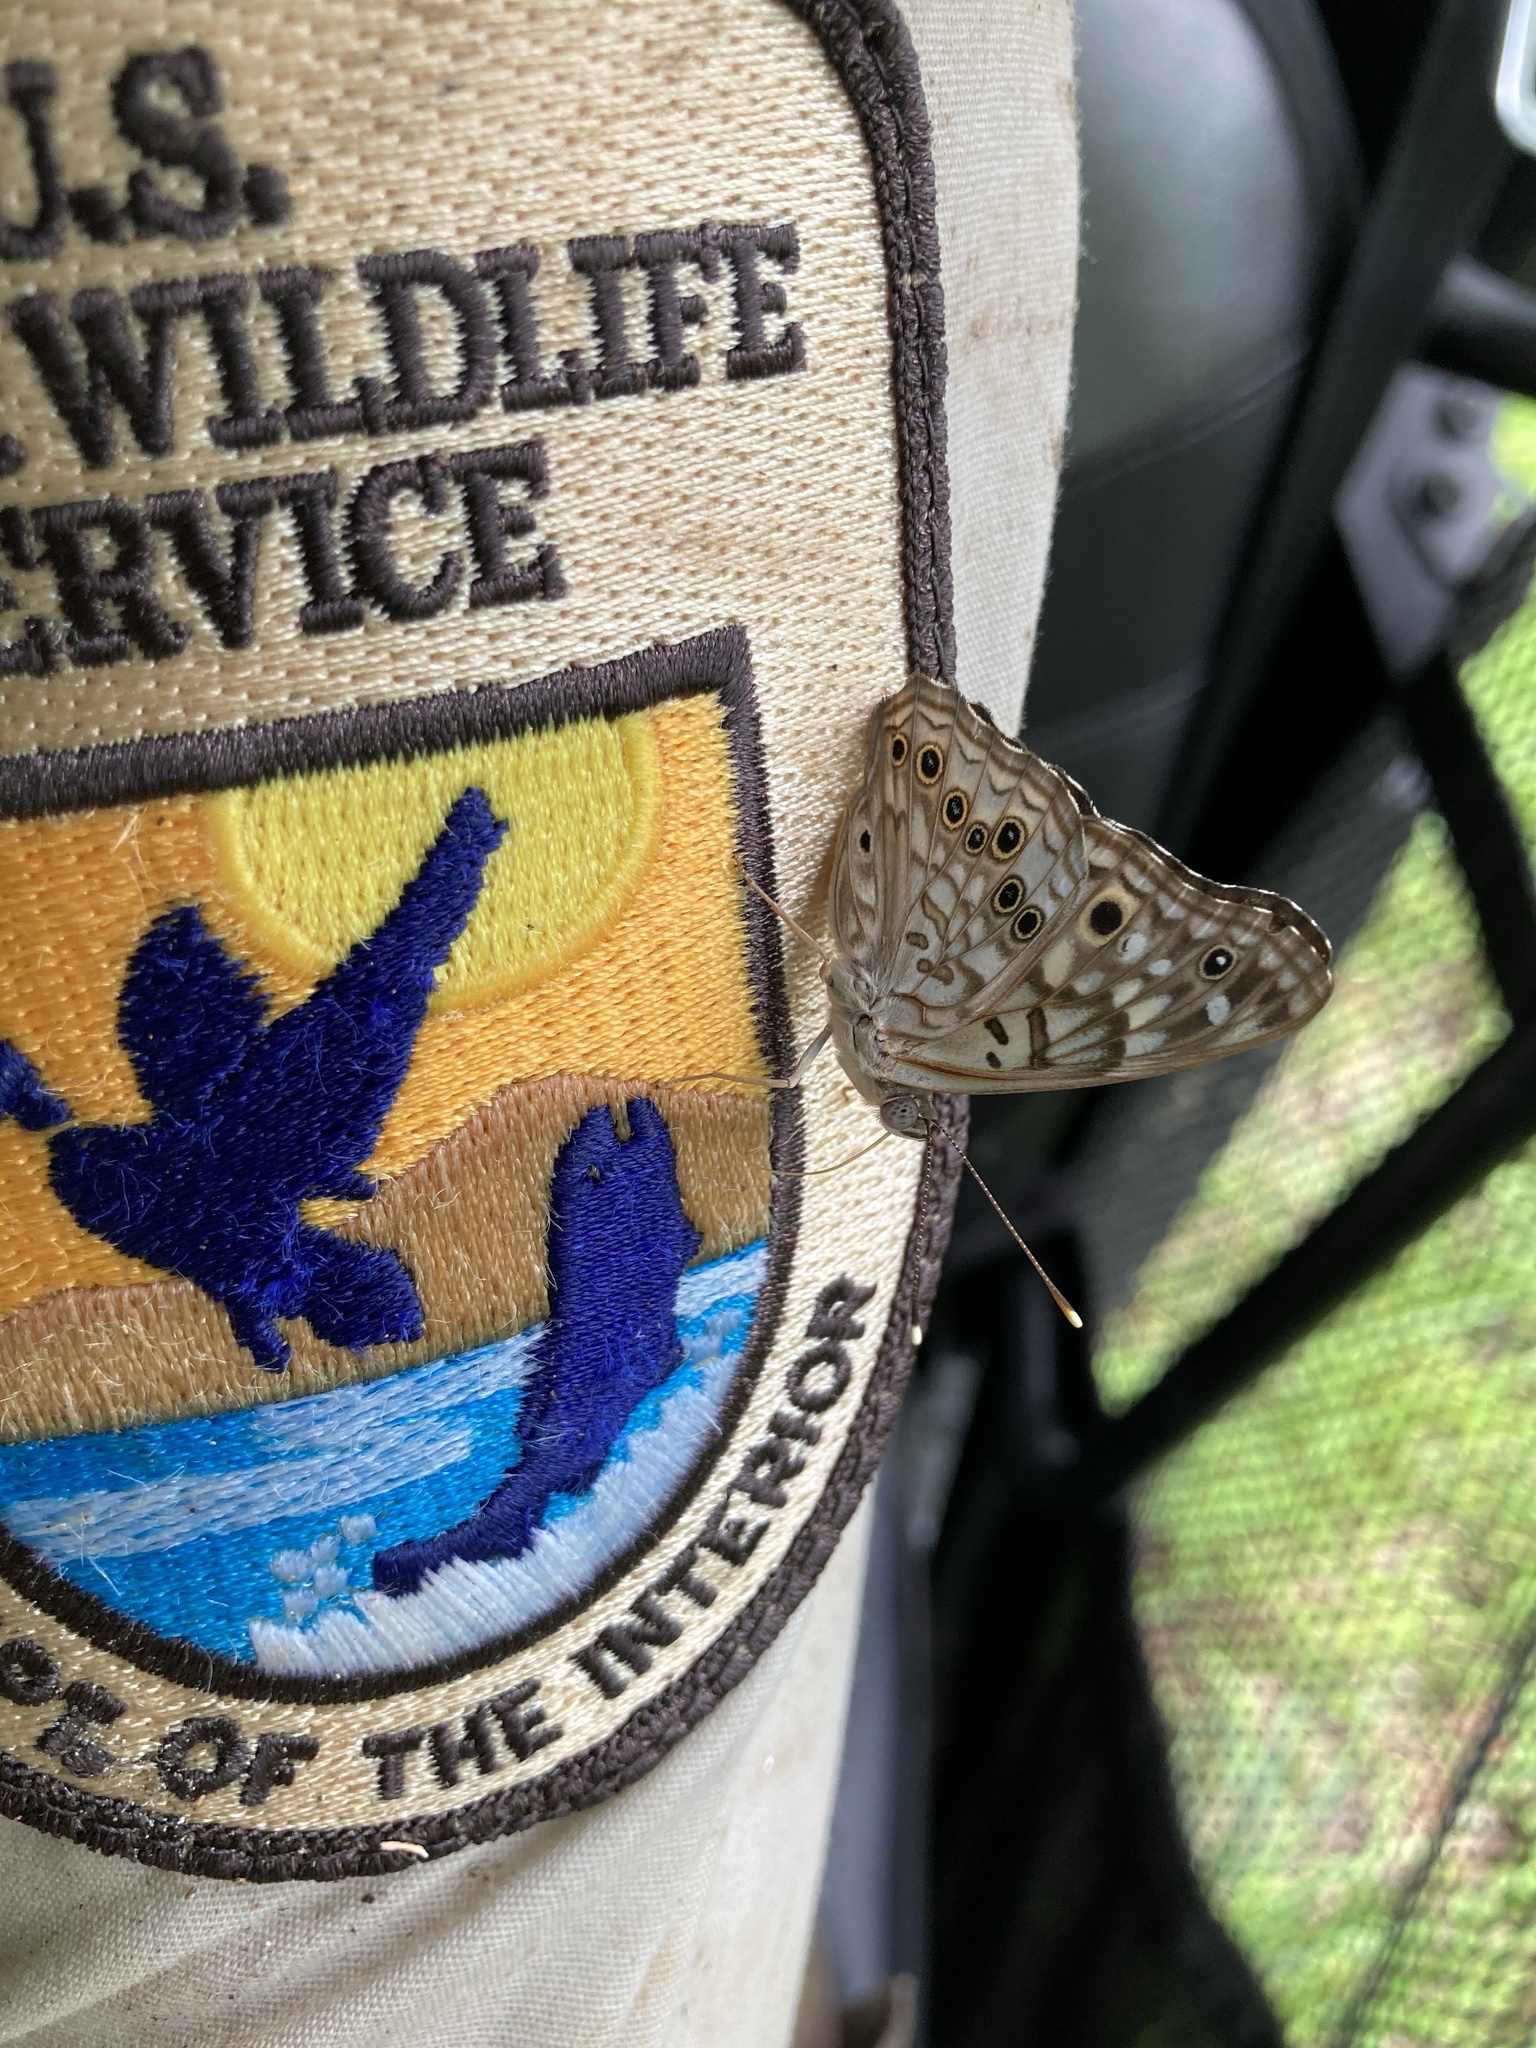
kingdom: Animalia
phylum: Arthropoda
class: Insecta
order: Lepidoptera
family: Nymphalidae
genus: Asterocampa
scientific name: Asterocampa celtis
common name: Hackberry emperor
